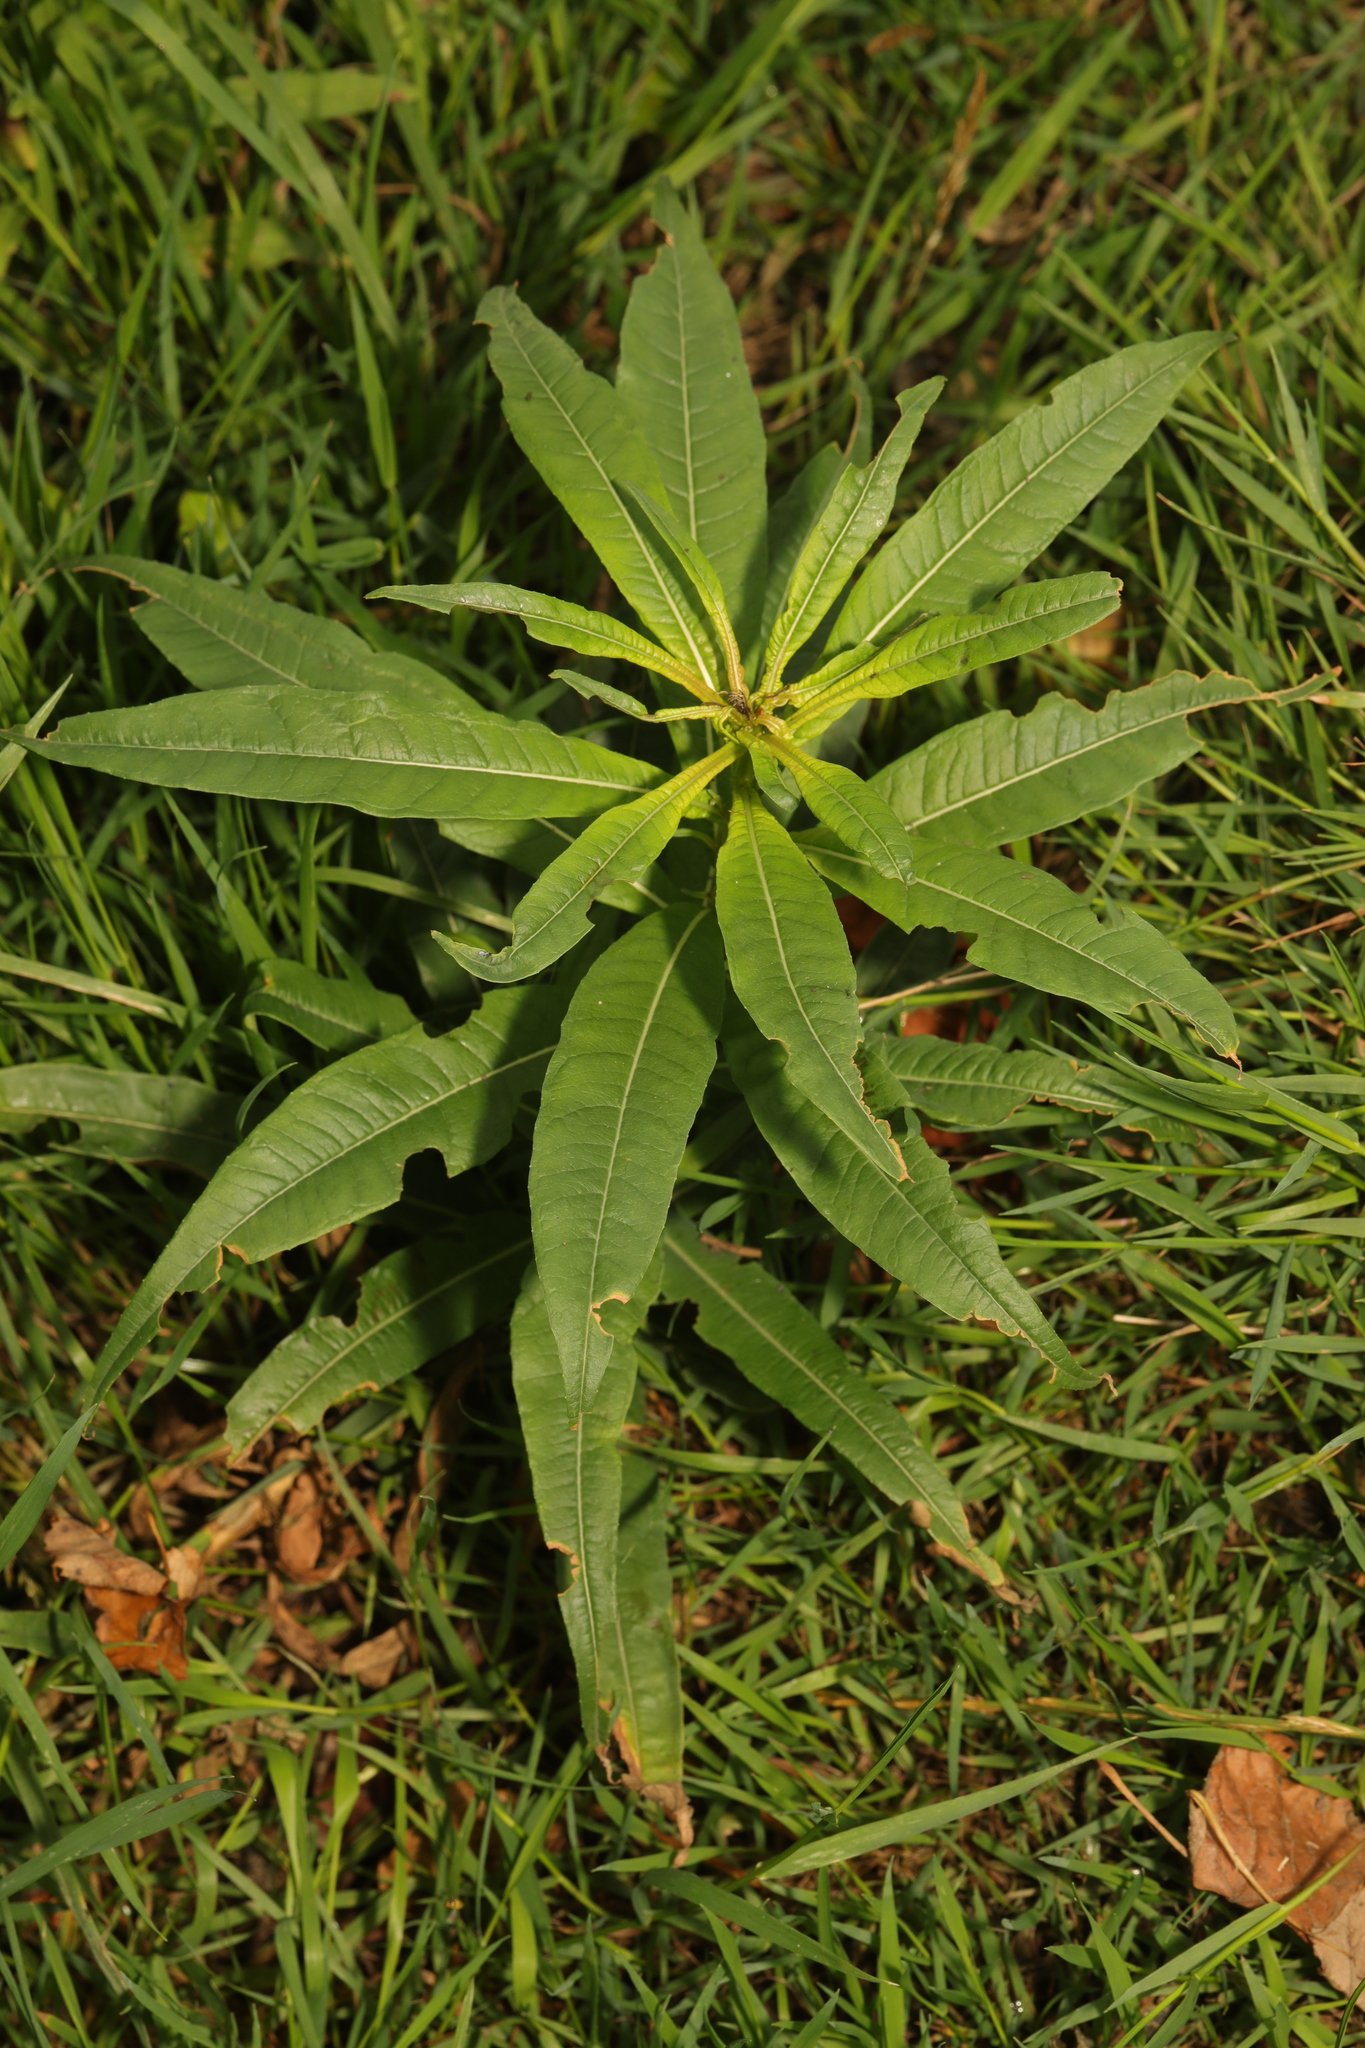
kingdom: Plantae
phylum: Tracheophyta
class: Magnoliopsida
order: Myrtales
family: Onagraceae
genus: Chamaenerion
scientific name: Chamaenerion angustifolium
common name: Fireweed
